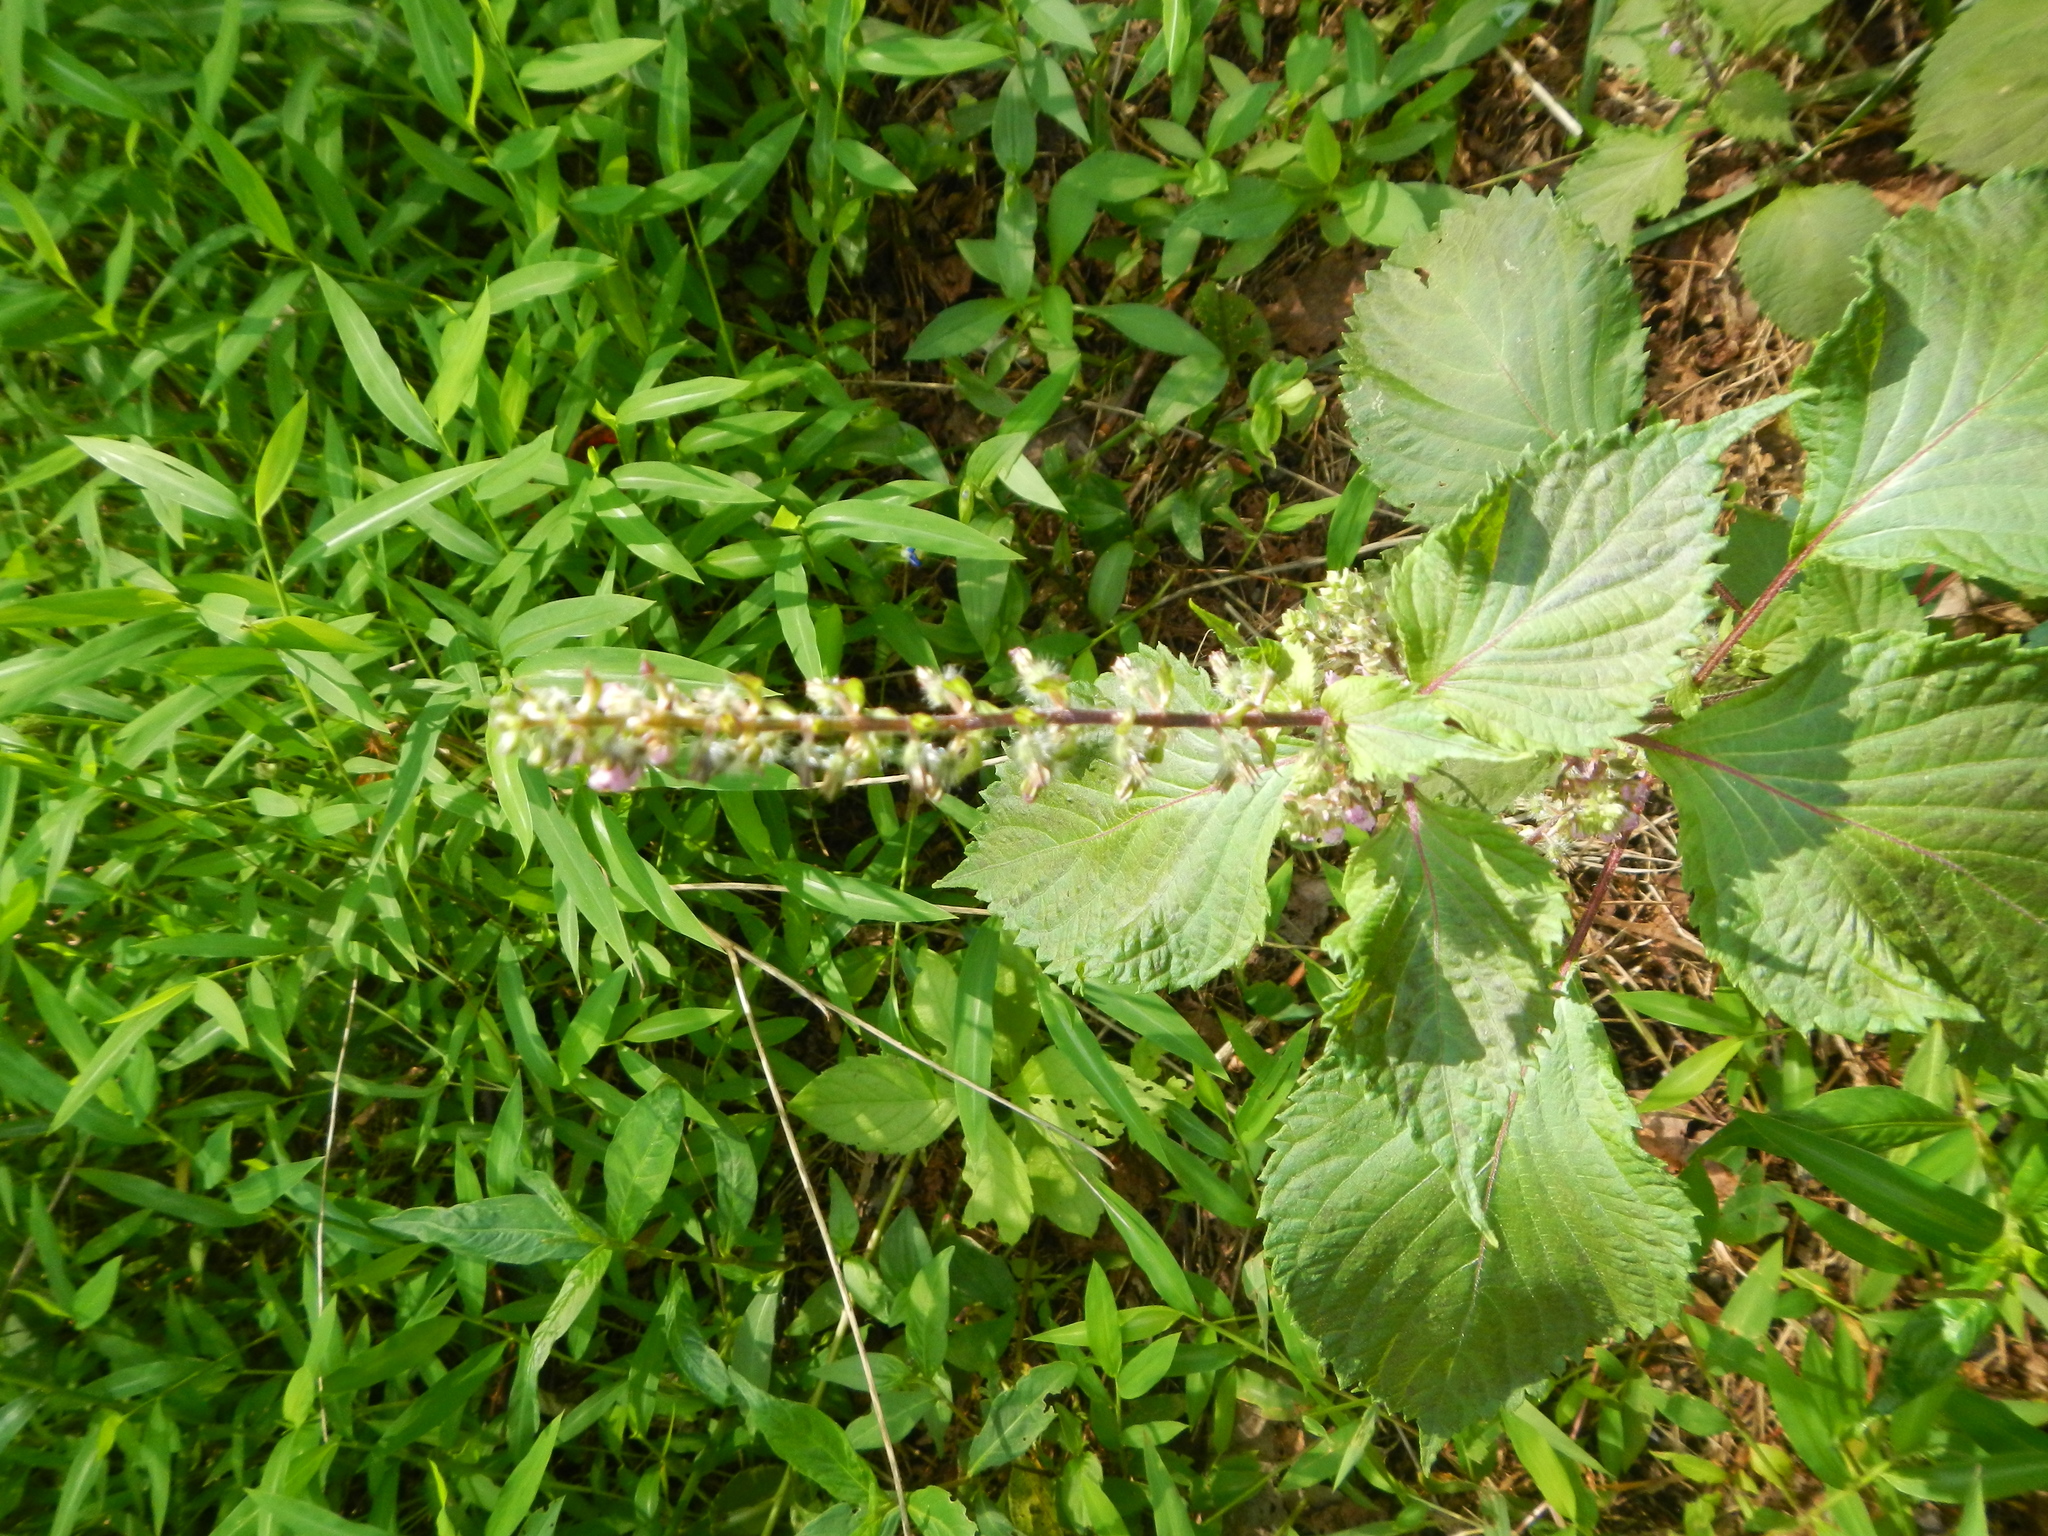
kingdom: Plantae
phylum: Tracheophyta
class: Magnoliopsida
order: Lamiales
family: Lamiaceae
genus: Perilla
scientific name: Perilla frutescens
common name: Perilla
